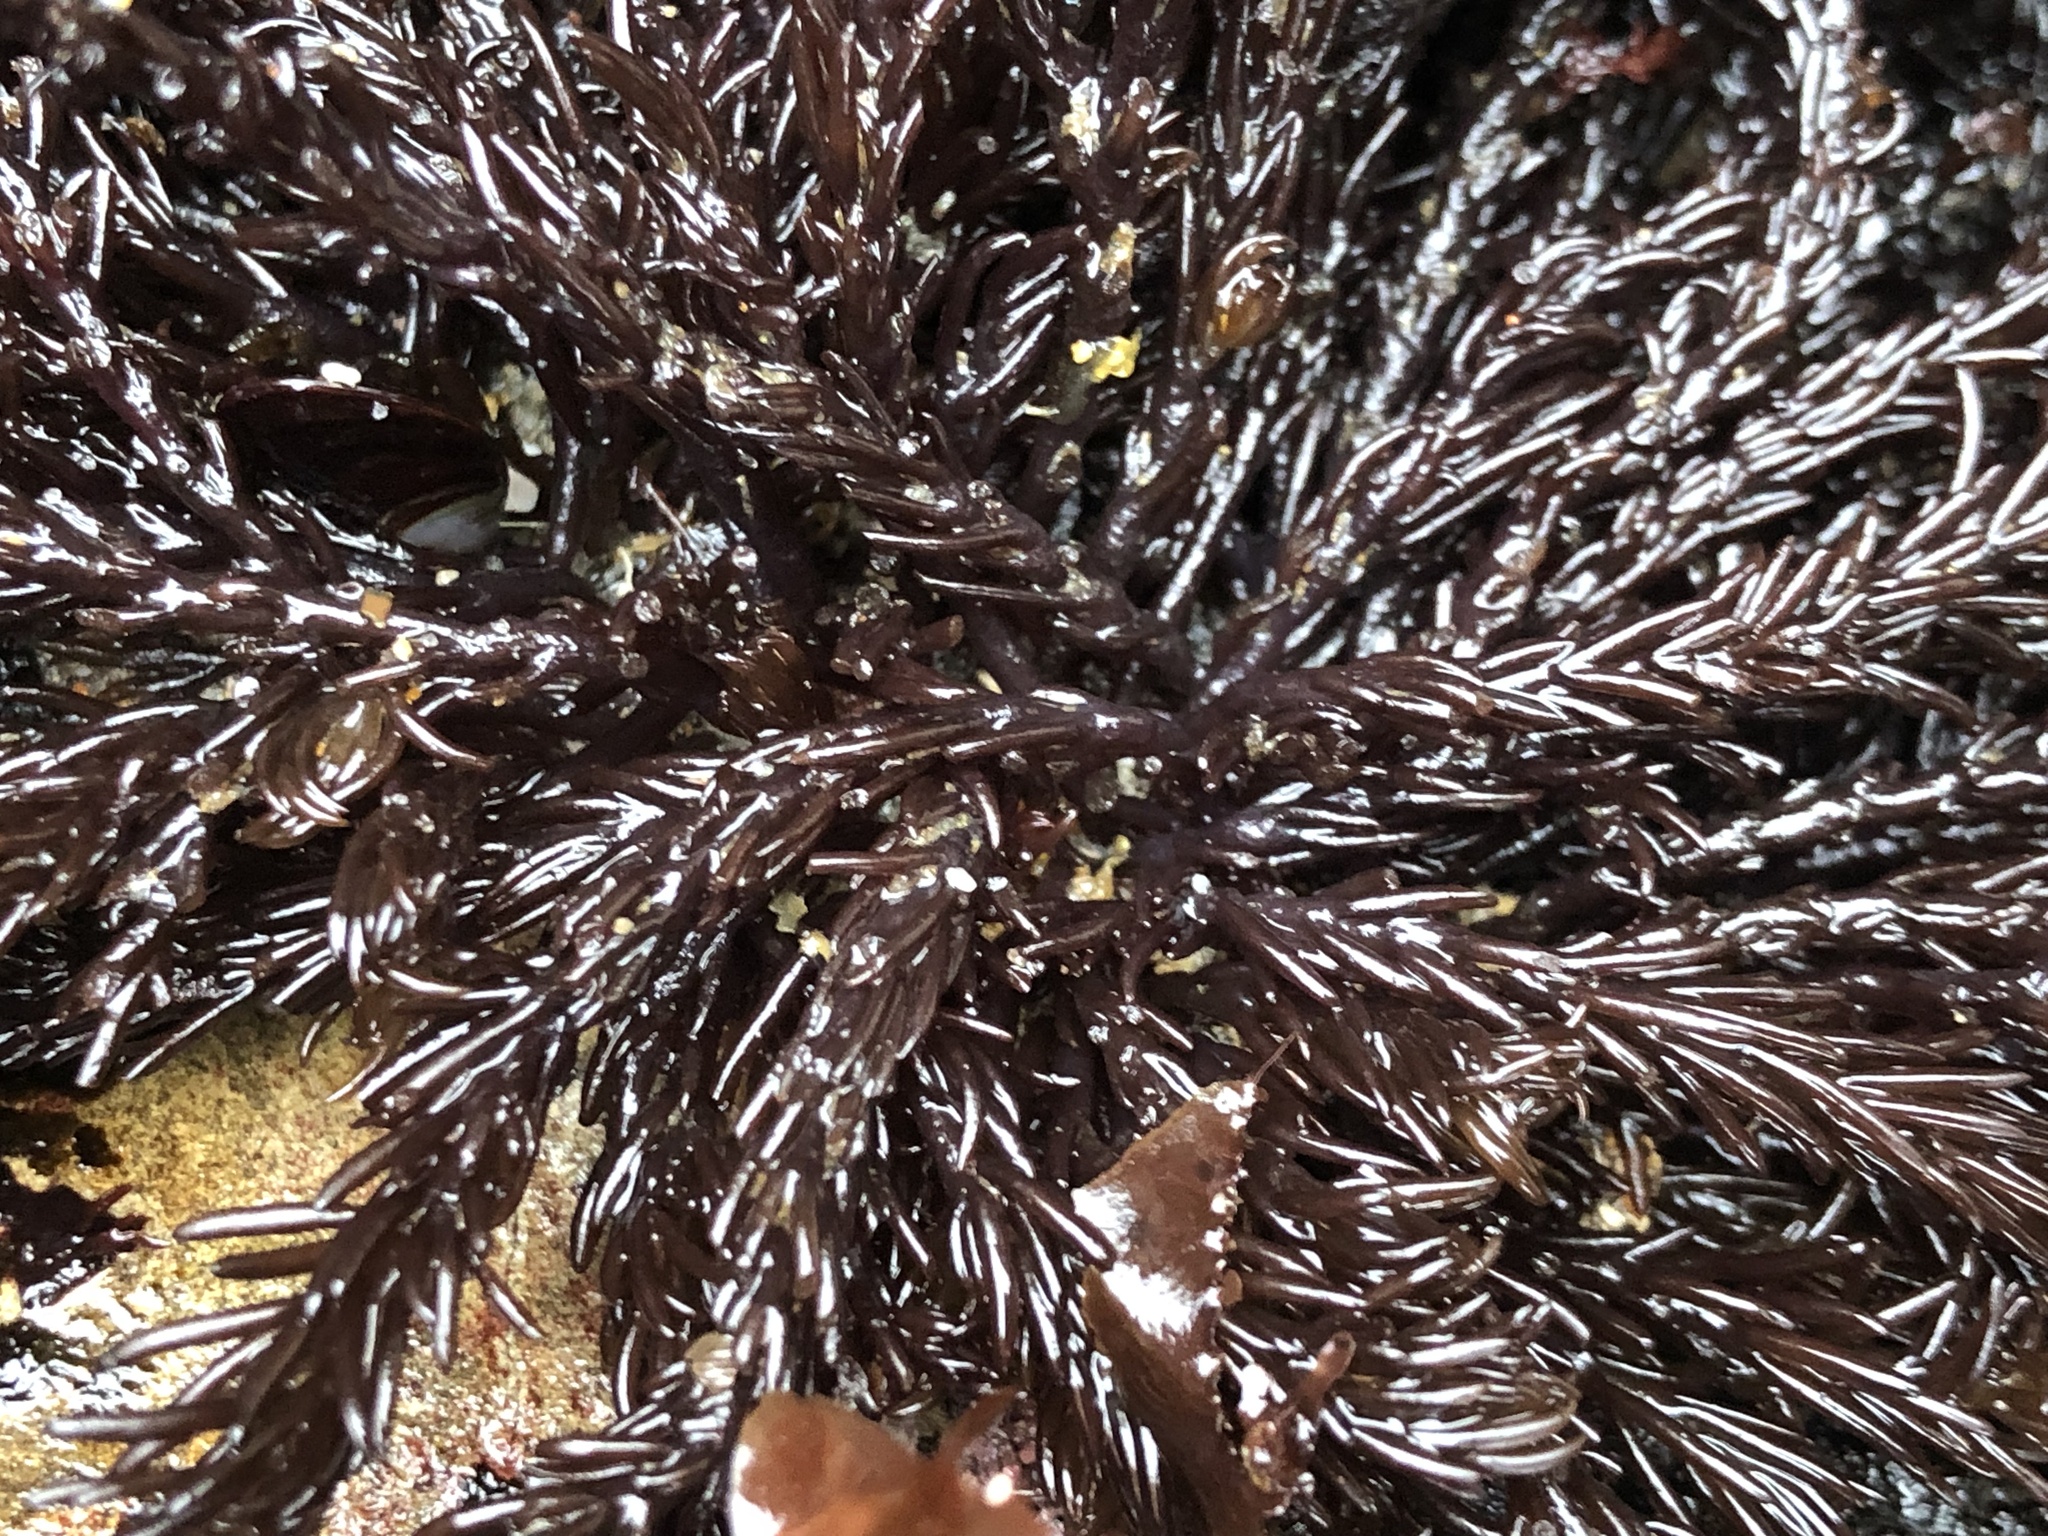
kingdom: Plantae
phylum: Rhodophyta
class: Florideophyceae
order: Ceramiales
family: Rhodomelaceae
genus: Neorhodomela
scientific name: Neorhodomela larix
